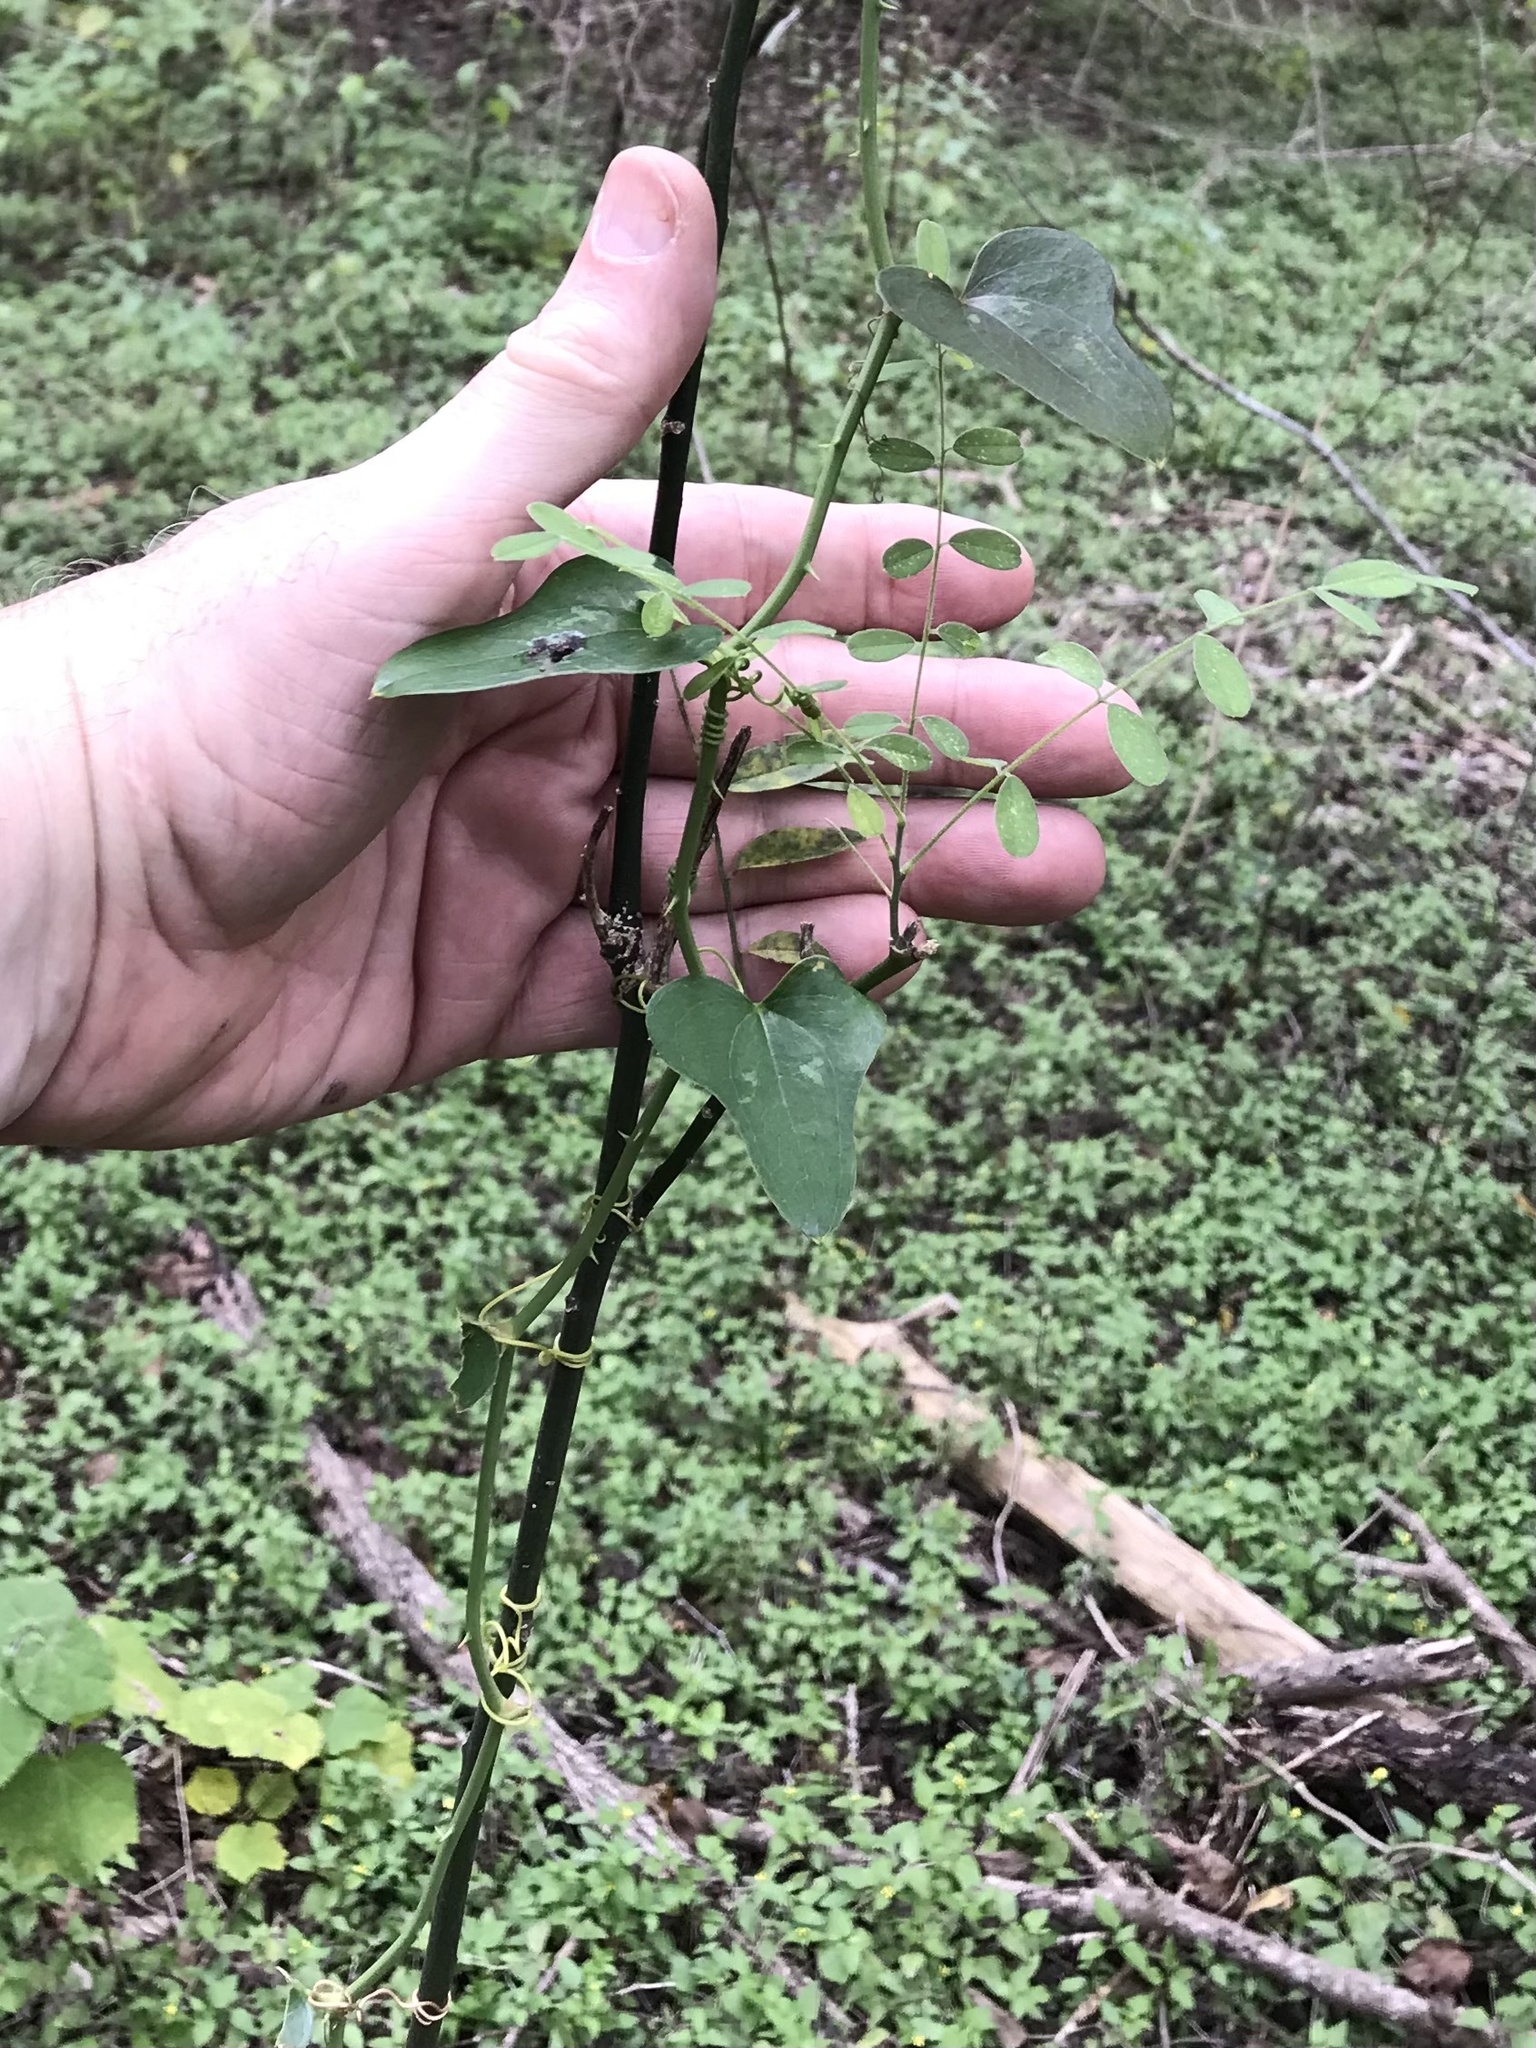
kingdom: Plantae
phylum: Tracheophyta
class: Liliopsida
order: Liliales
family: Smilacaceae
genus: Smilax
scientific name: Smilax bona-nox
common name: Catbrier
